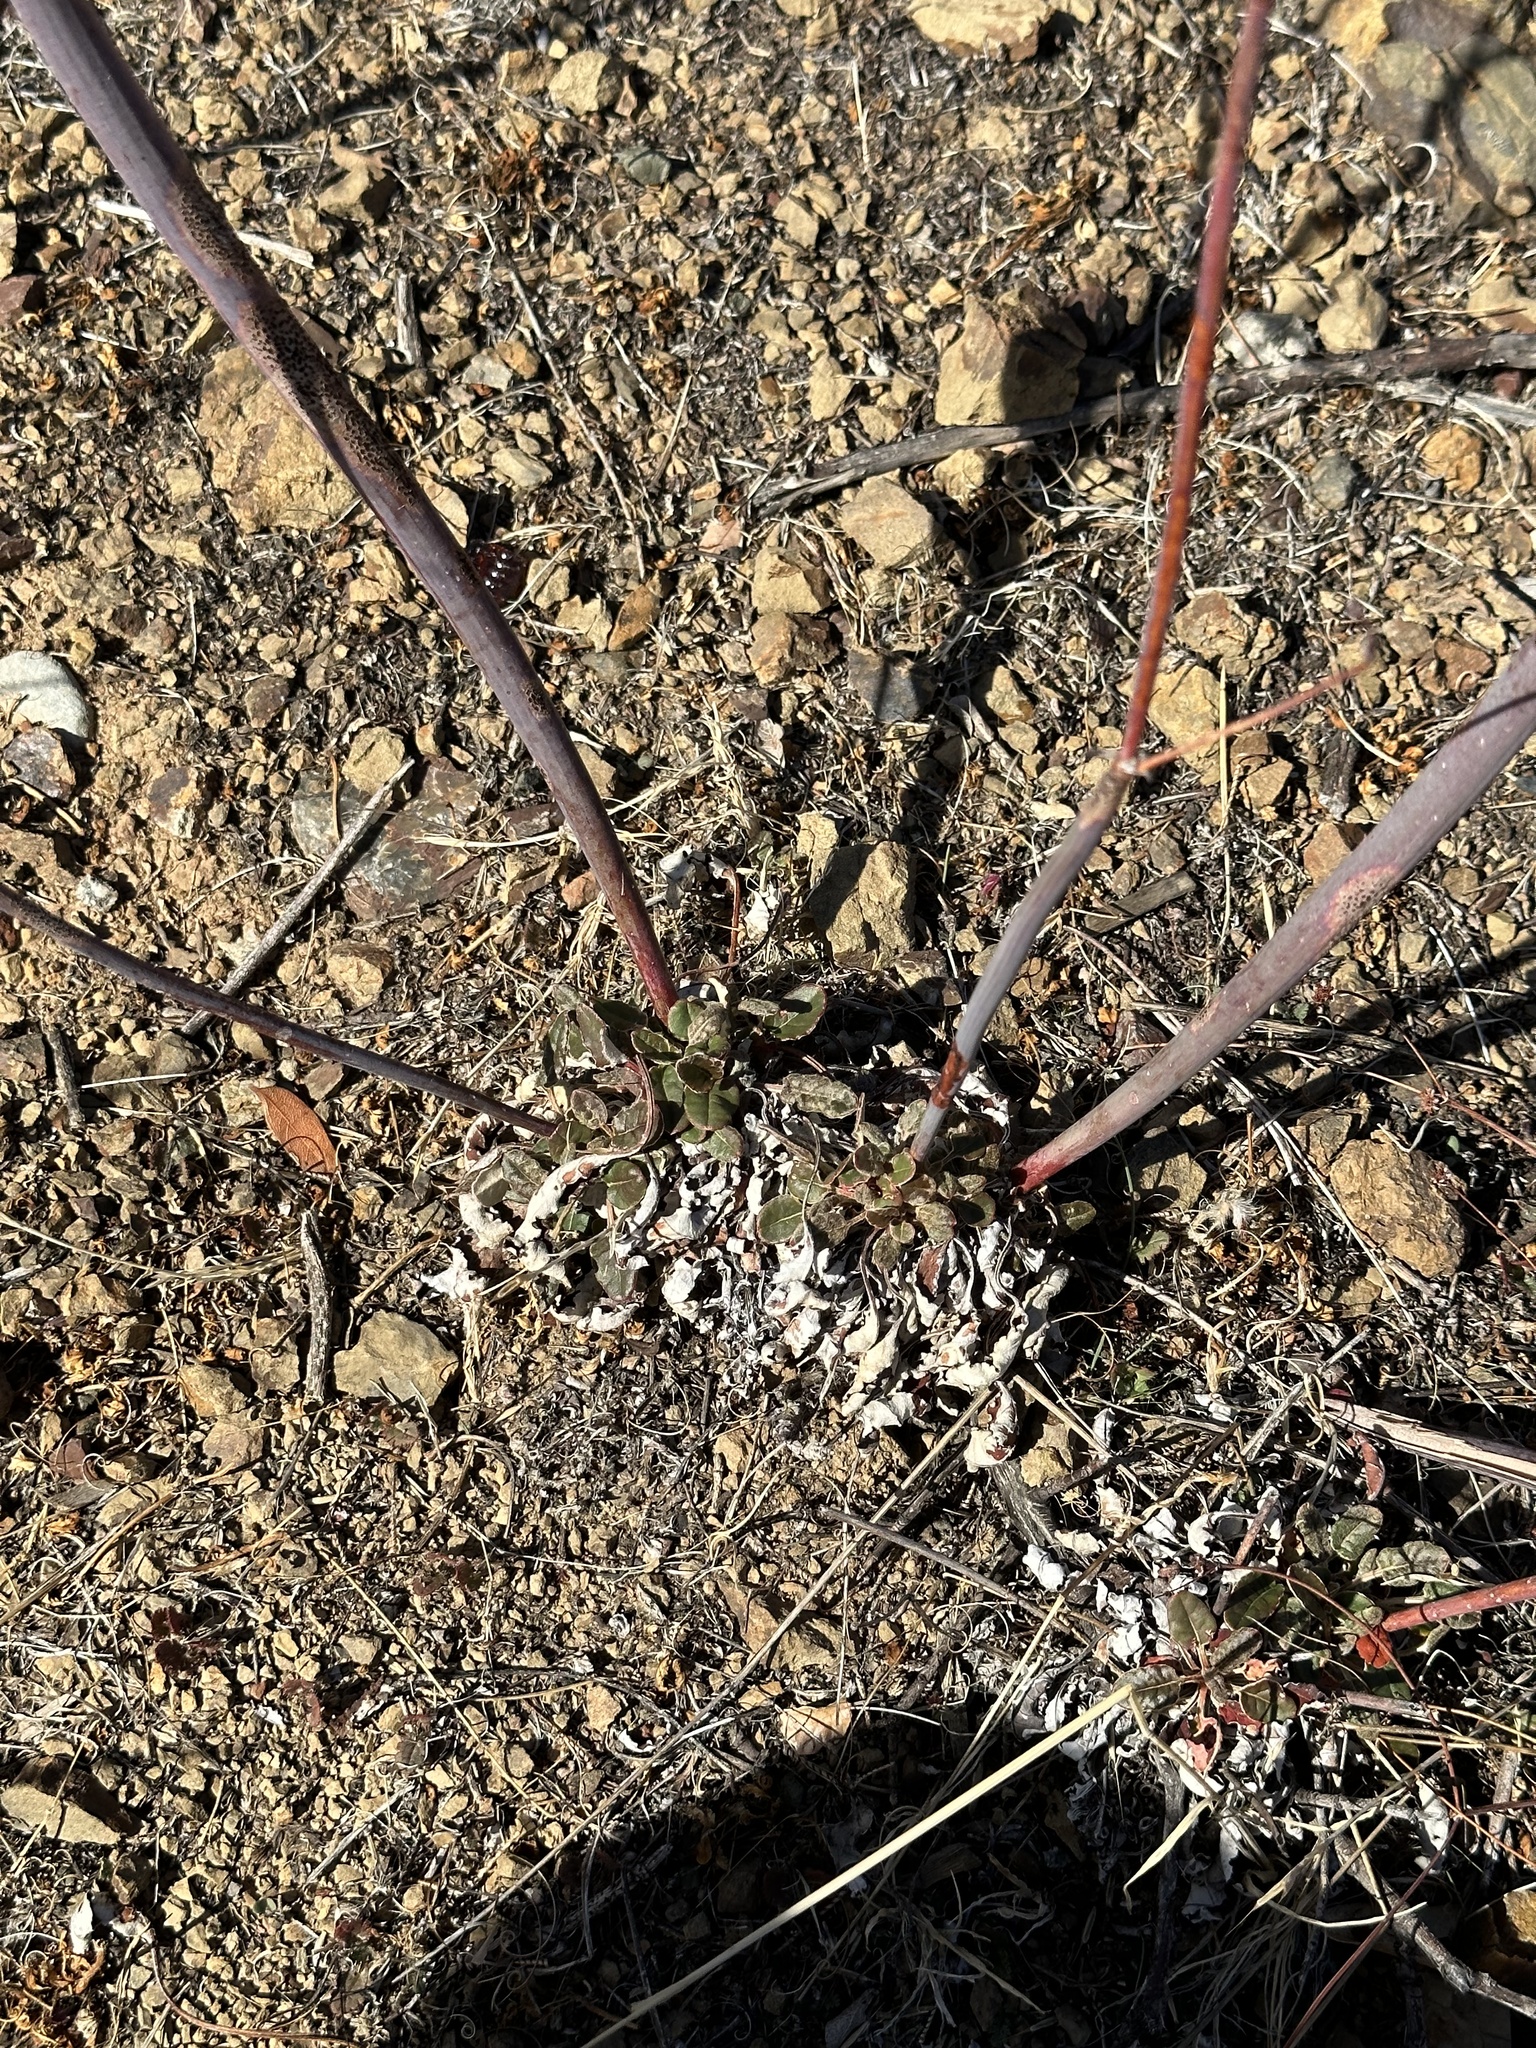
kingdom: Plantae
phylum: Tracheophyta
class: Magnoliopsida
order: Caryophyllales
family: Polygonaceae
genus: Eriogonum
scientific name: Eriogonum nudum
